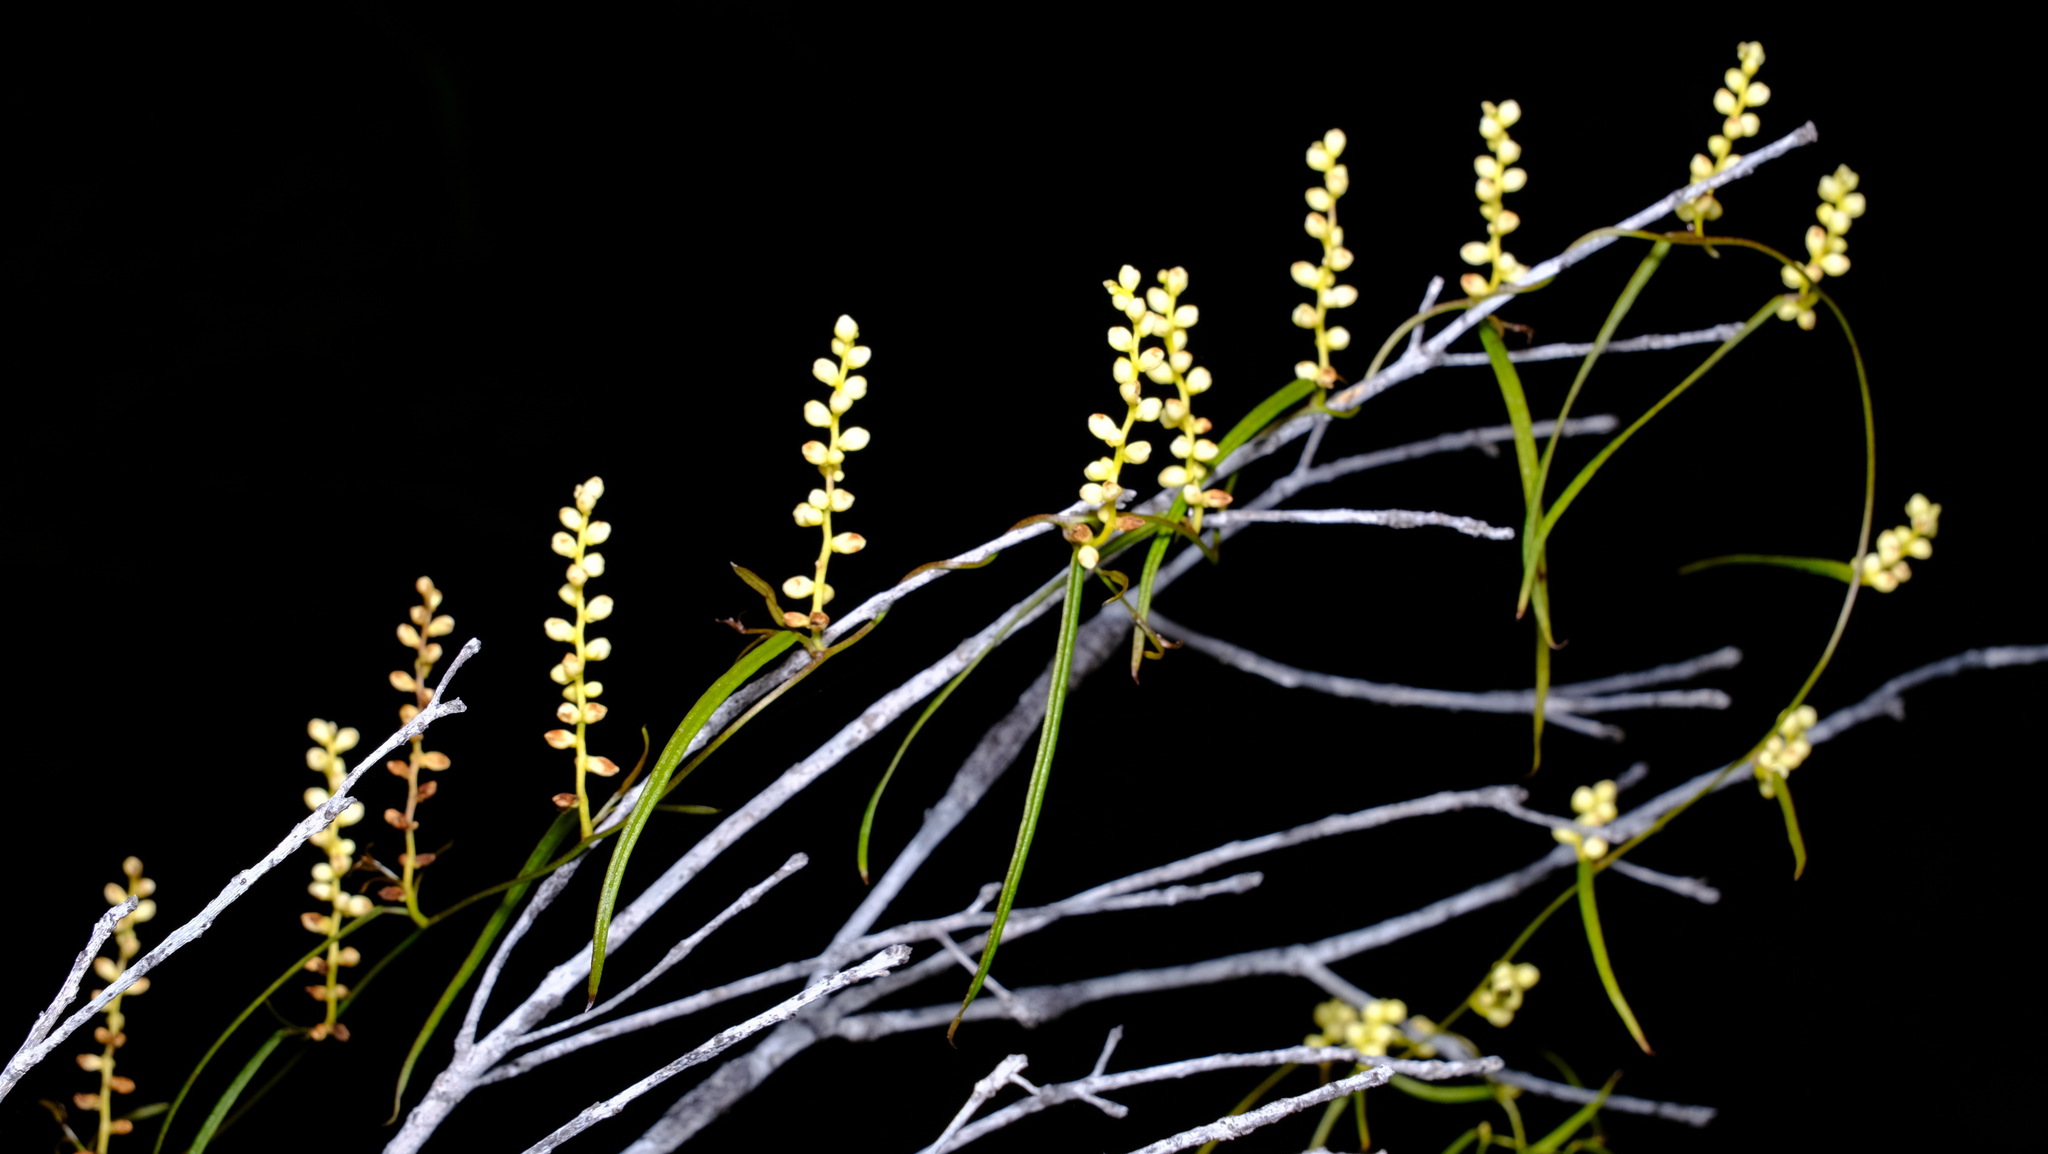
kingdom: Plantae
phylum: Tracheophyta
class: Liliopsida
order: Dioscoreales
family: Dioscoreaceae
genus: Dioscorea
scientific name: Dioscorea hastifolia
